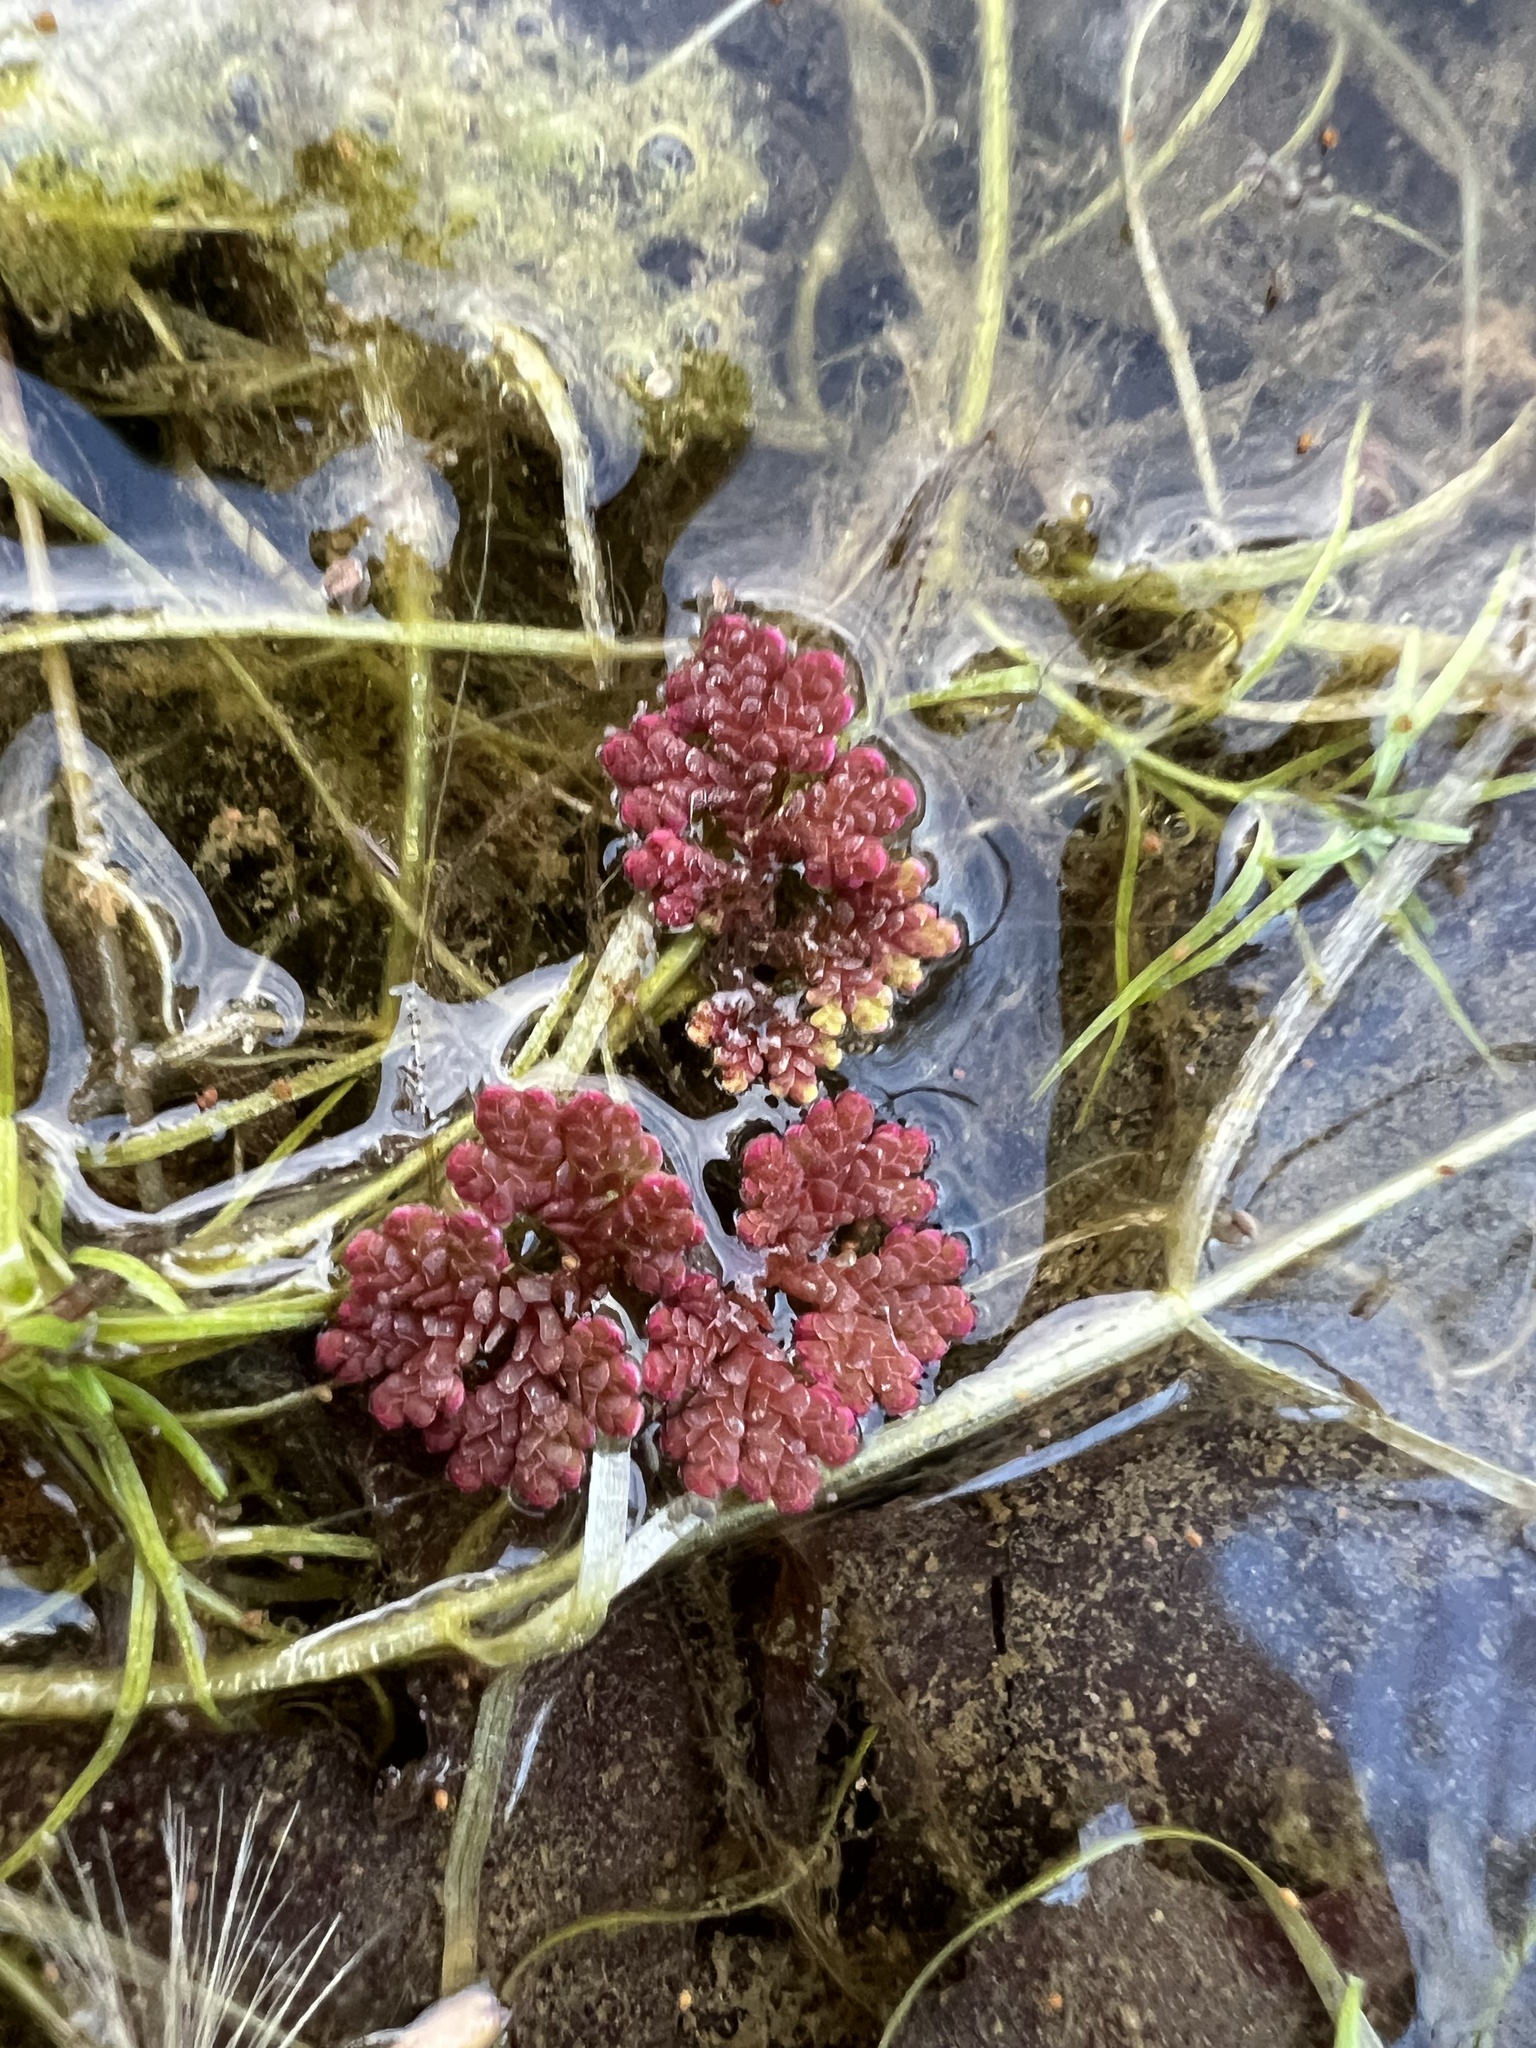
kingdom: Plantae
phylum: Tracheophyta
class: Polypodiopsida
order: Salviniales
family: Salviniaceae
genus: Azolla
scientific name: Azolla caroliniana
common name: Carolina mosquitofern
